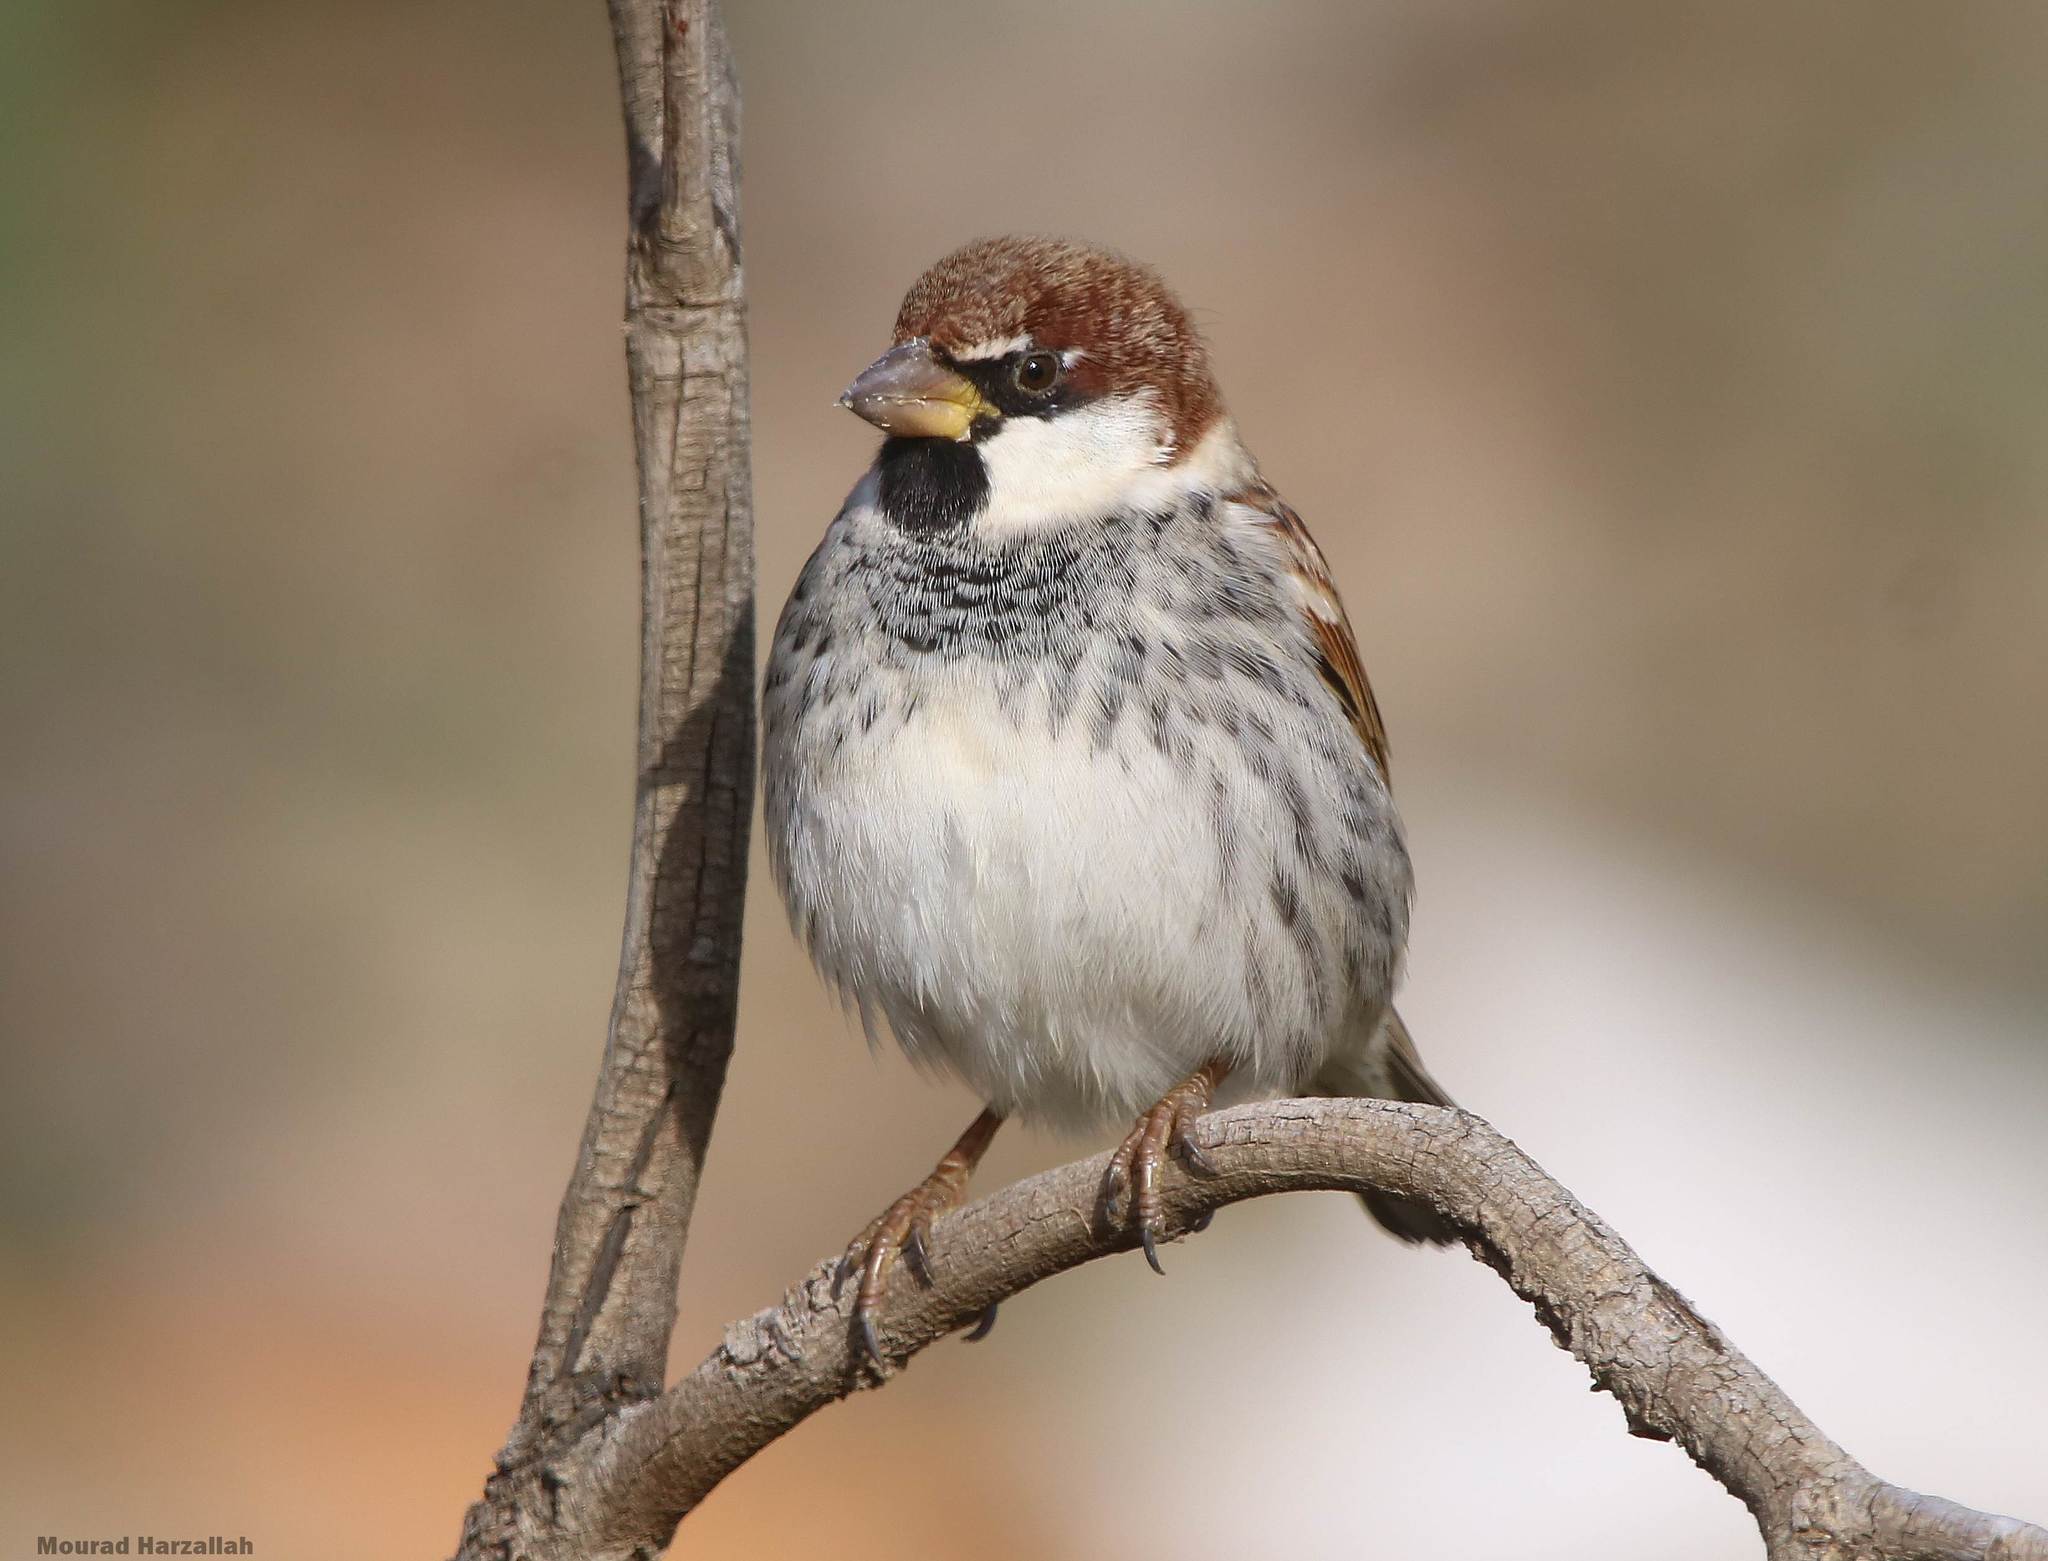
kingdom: Animalia
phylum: Chordata
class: Aves
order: Passeriformes
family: Passeridae
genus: Passer
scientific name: Passer hispaniolensis
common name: Spanish sparrow
